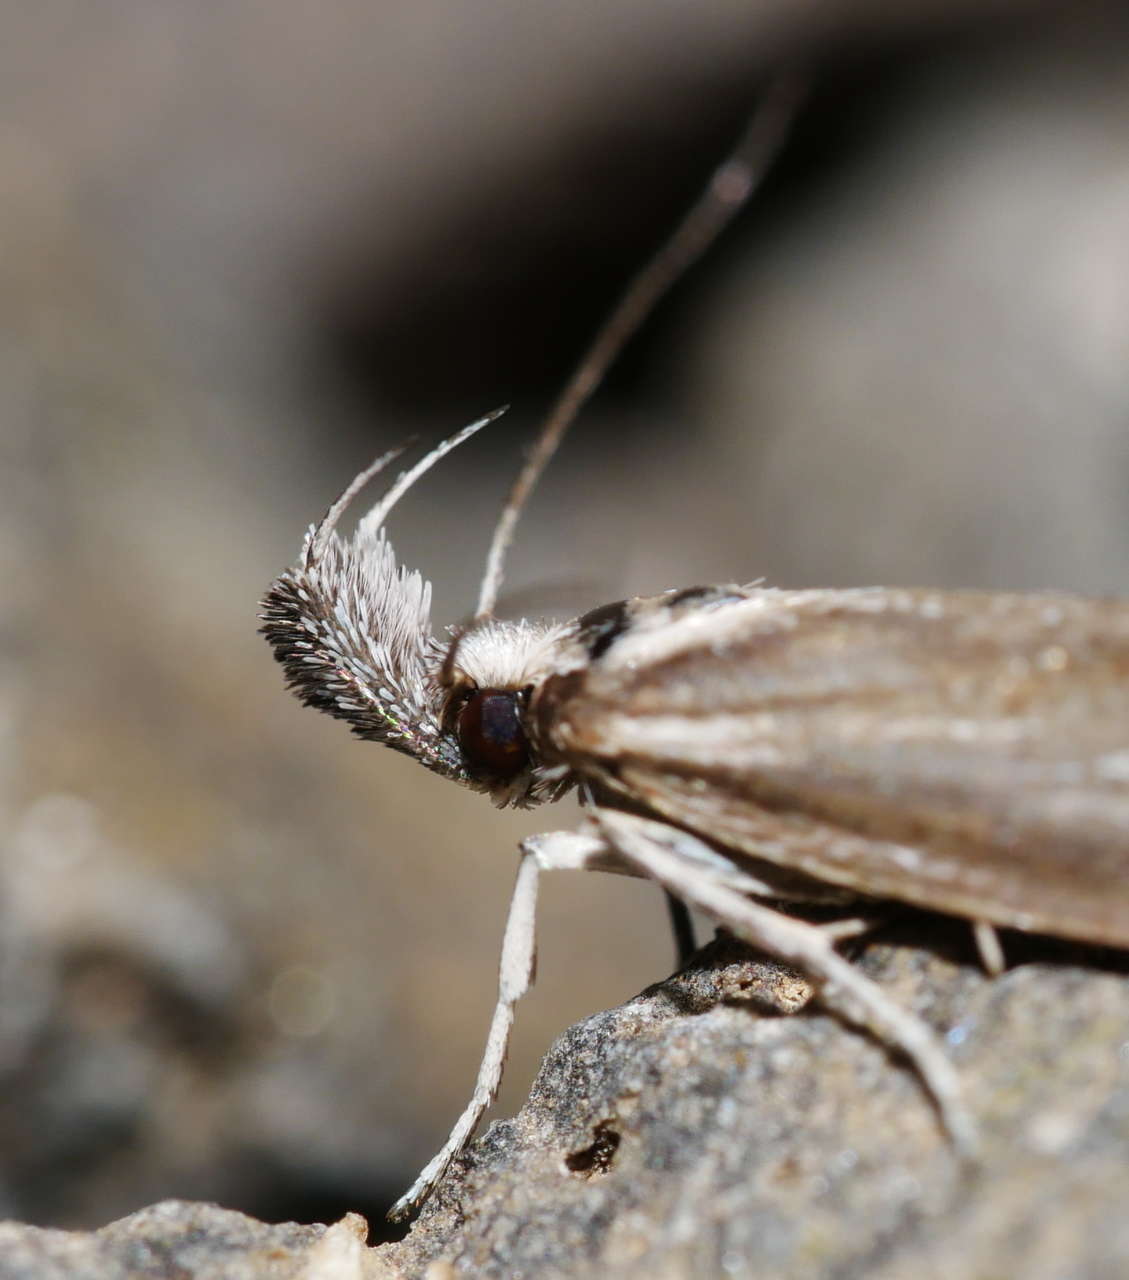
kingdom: Animalia
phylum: Arthropoda
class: Insecta
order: Lepidoptera
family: Oecophoridae
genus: Prepalla
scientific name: Prepalla tephrina
